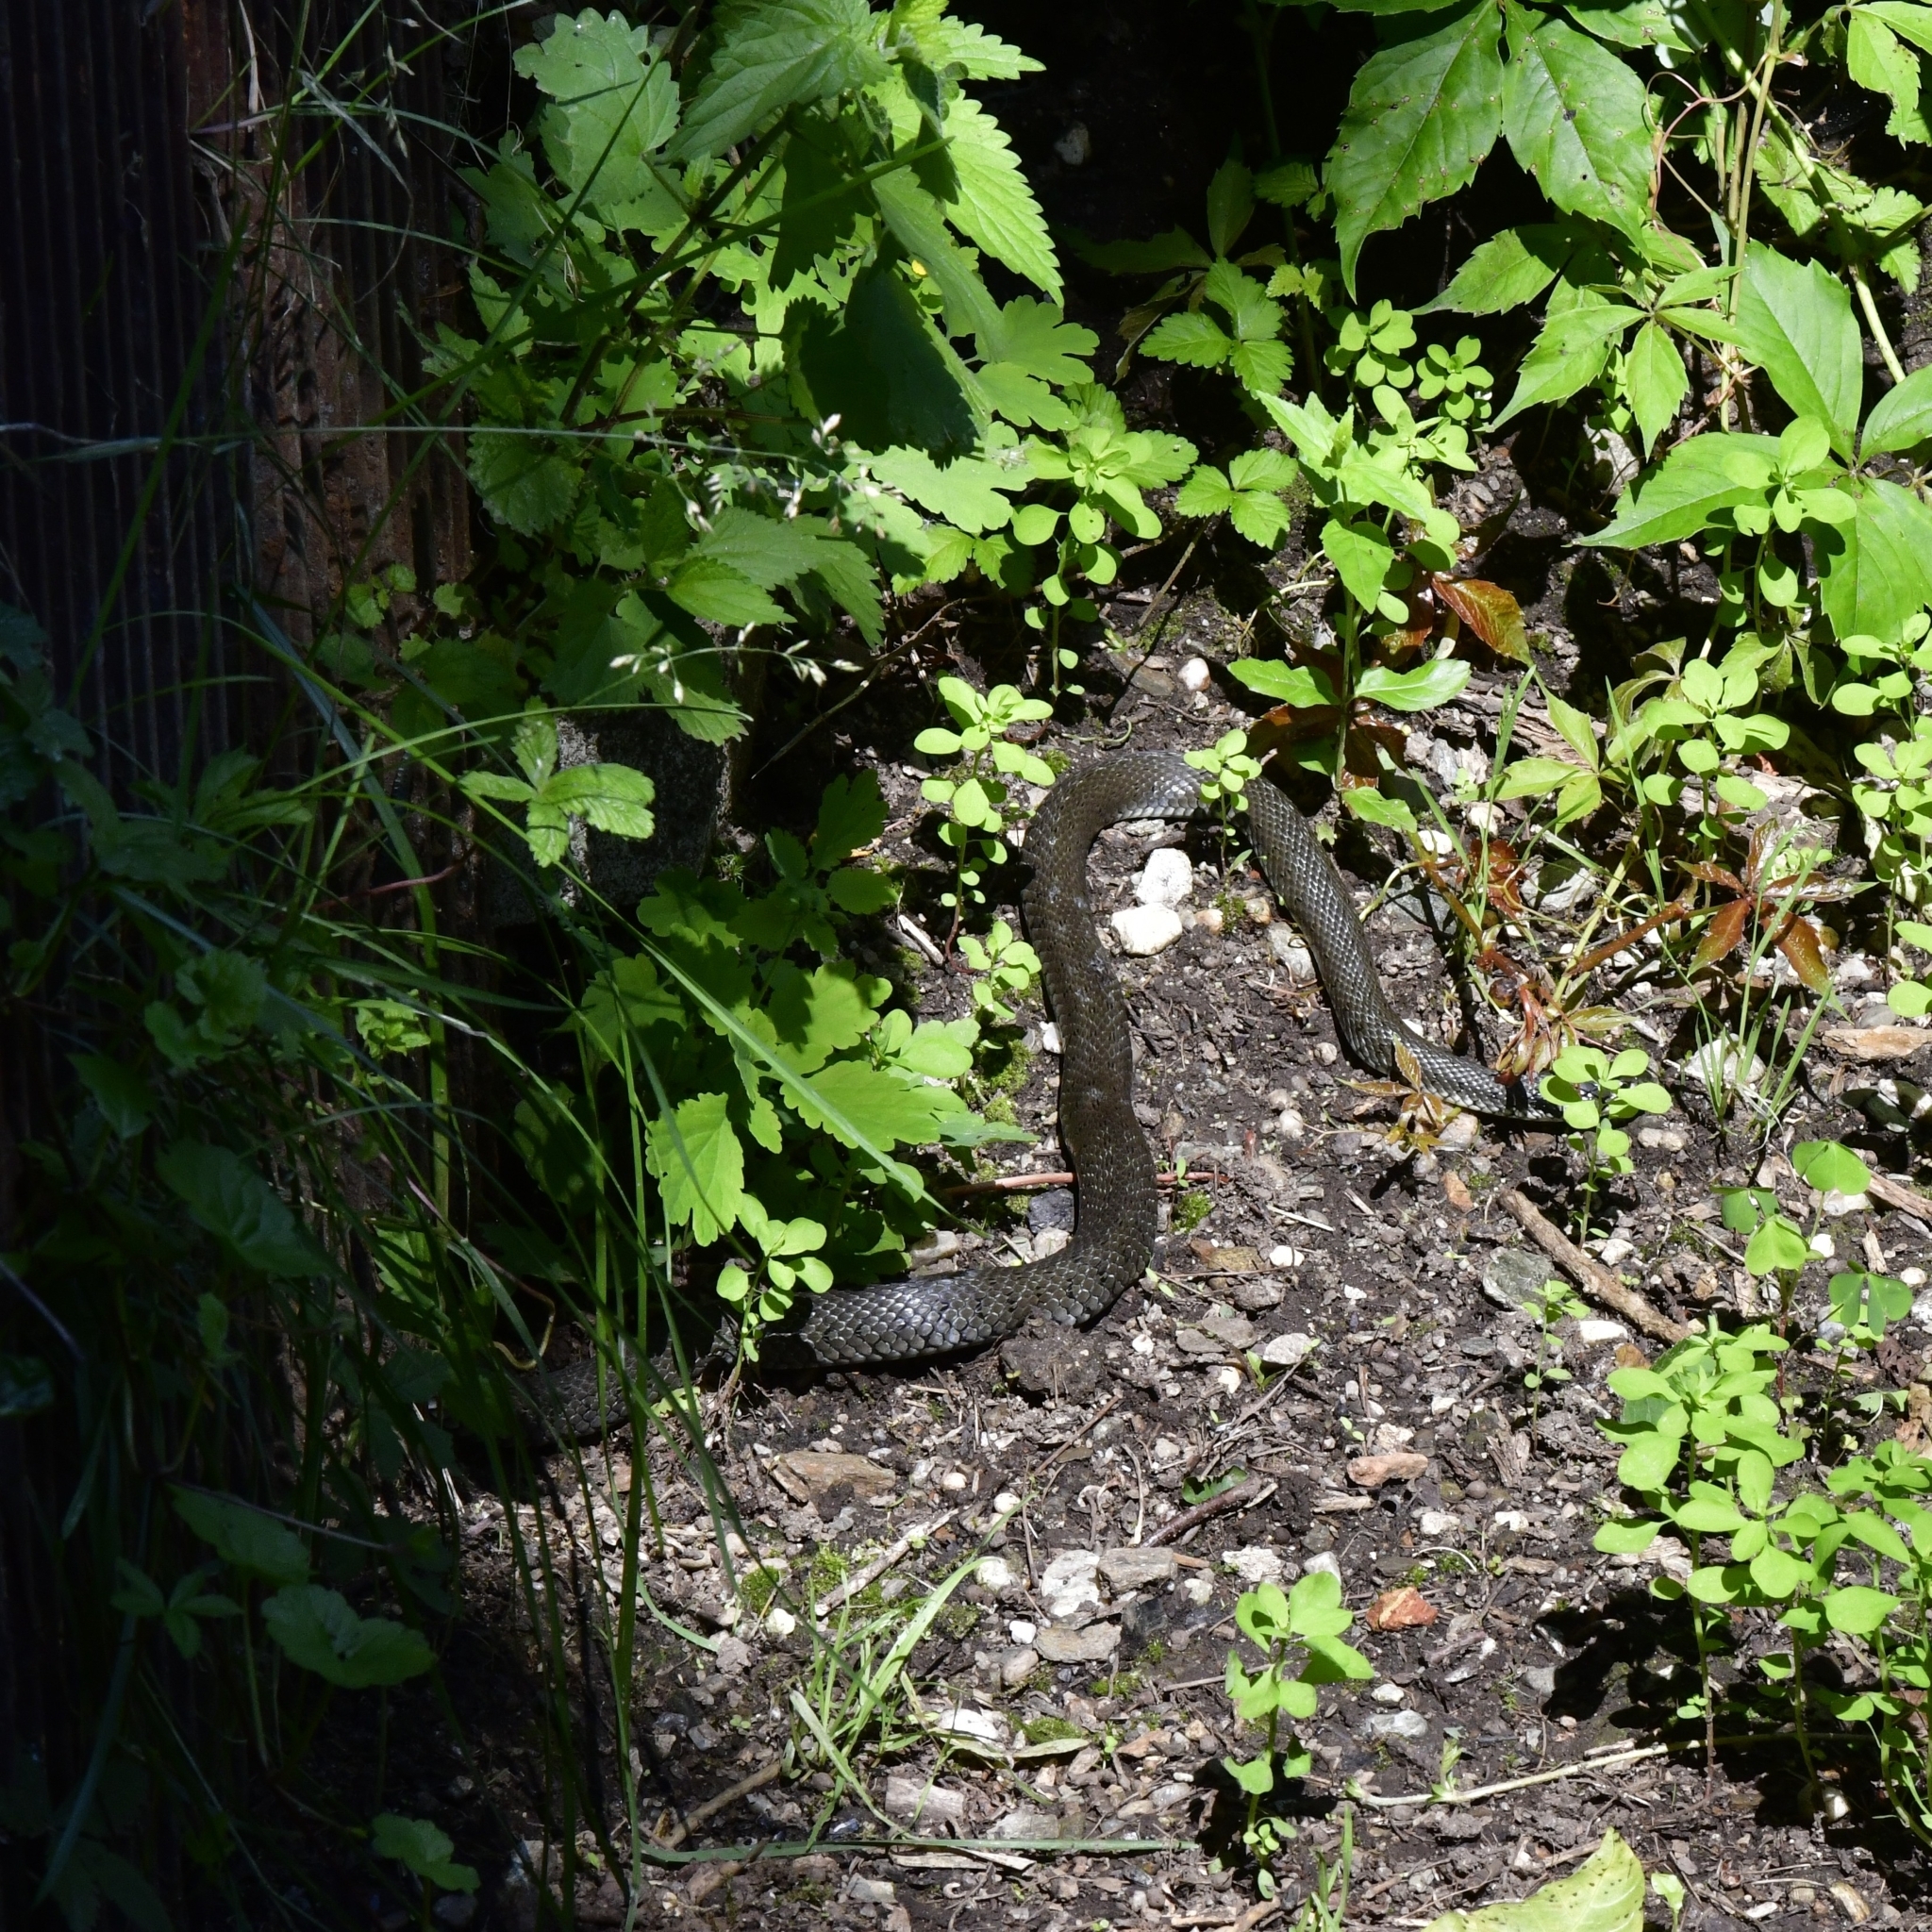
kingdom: Animalia
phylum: Chordata
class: Squamata
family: Colubridae
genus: Natrix
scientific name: Natrix natrix
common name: Grass snake
